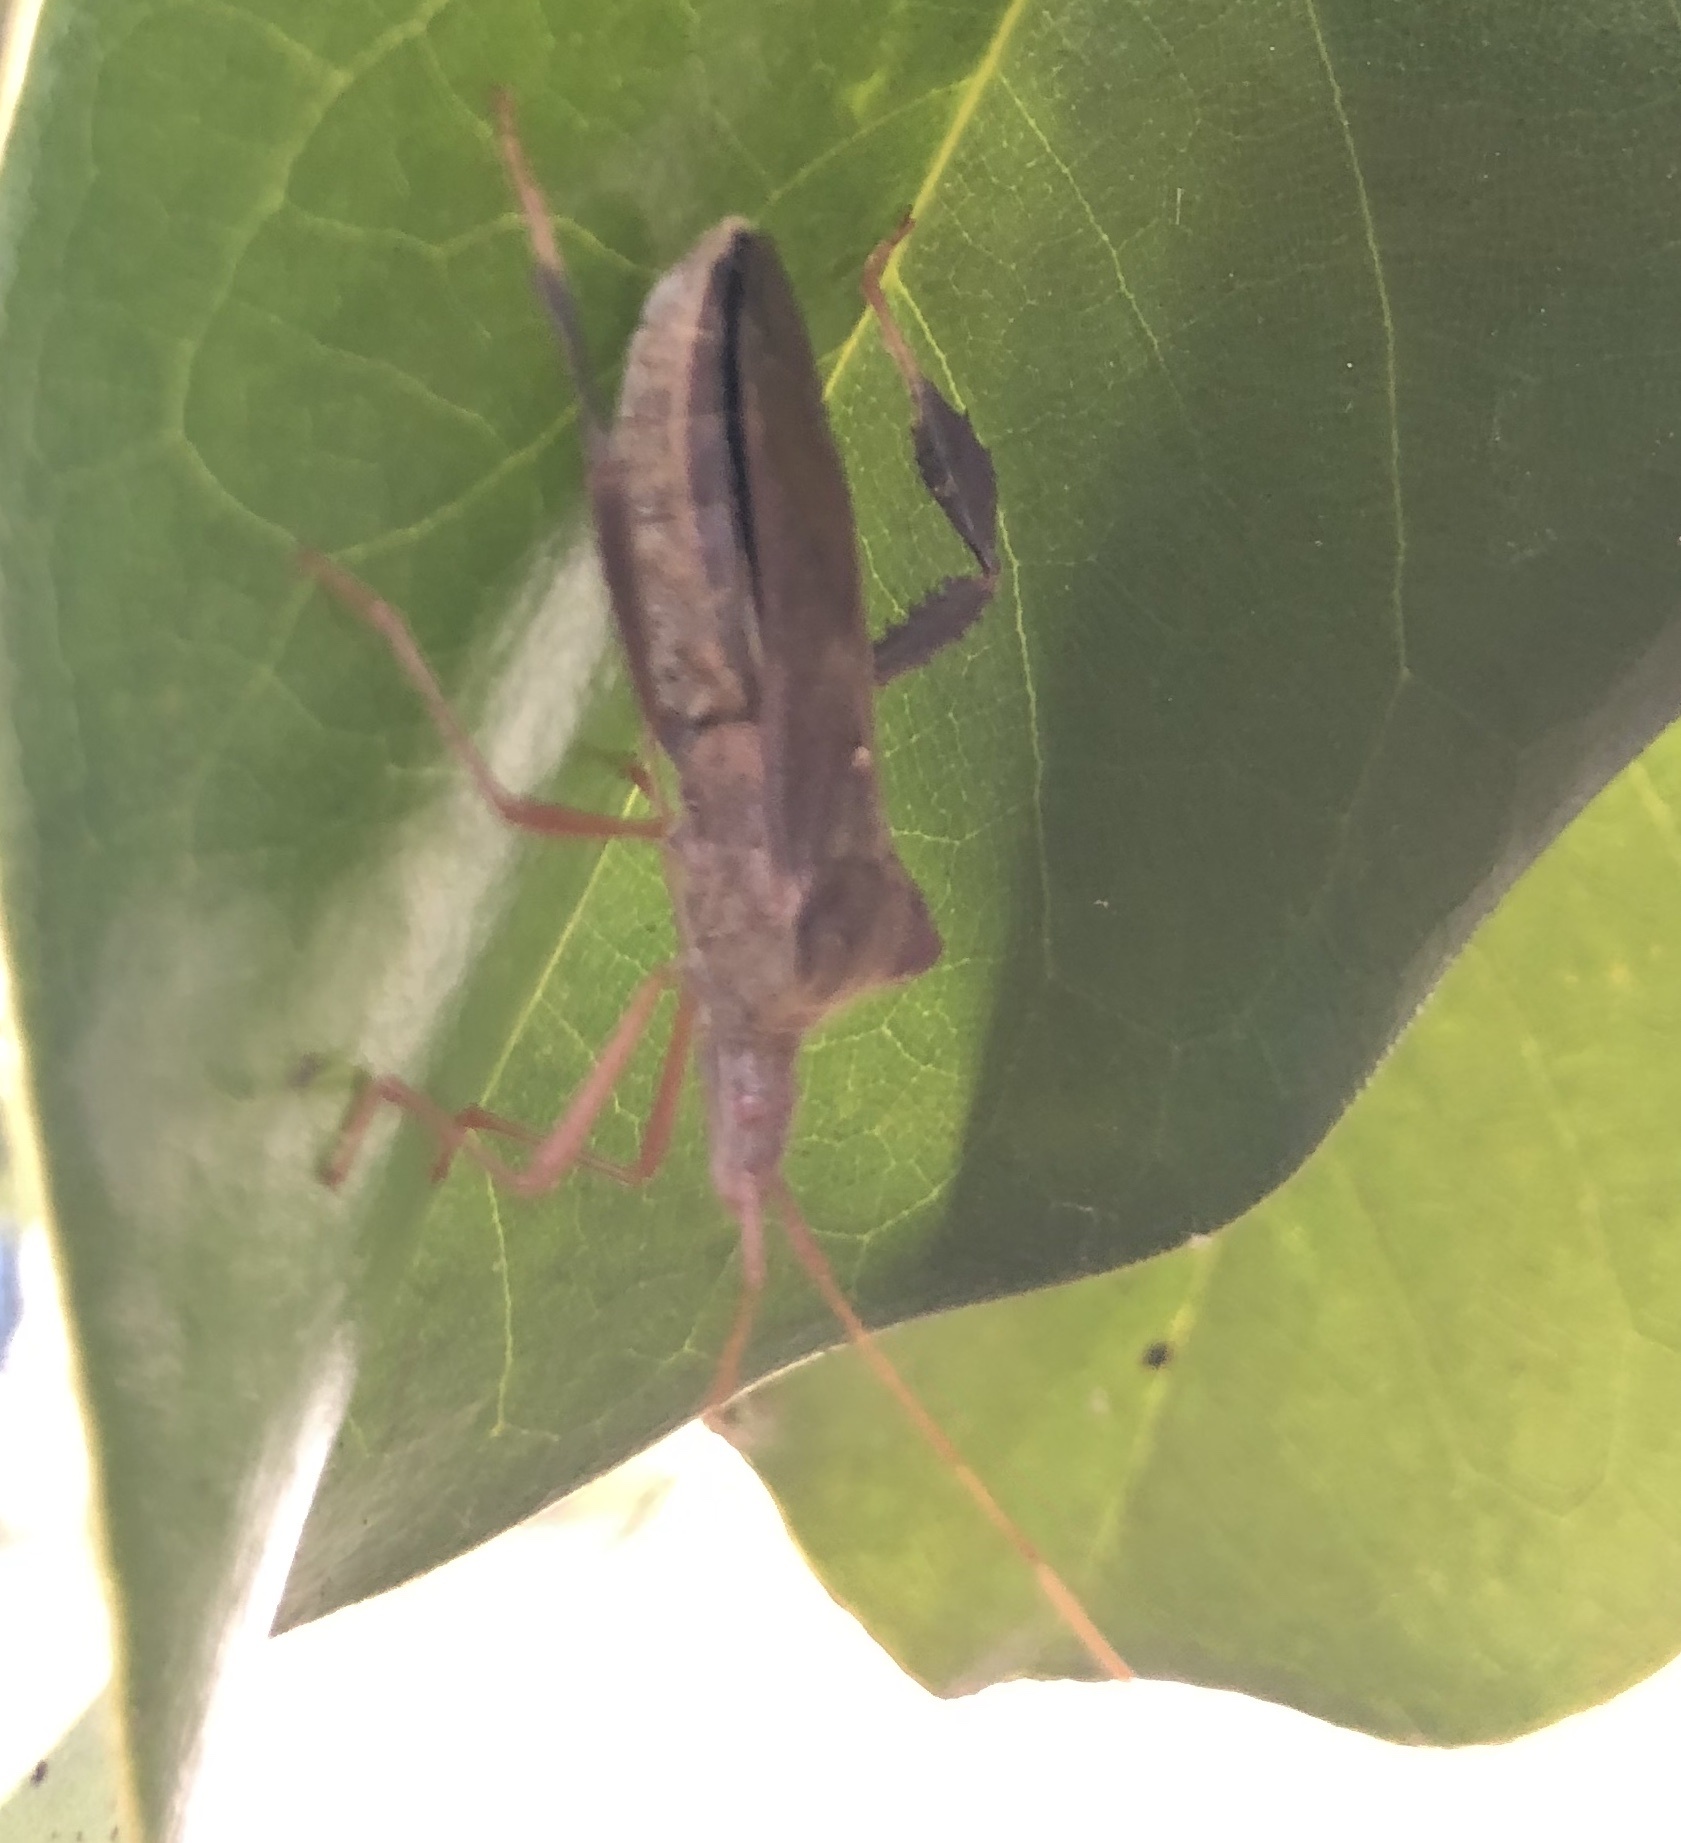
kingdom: Animalia
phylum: Arthropoda
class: Insecta
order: Hemiptera
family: Coreidae
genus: Leptoglossus
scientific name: Leptoglossus fulvicornis
